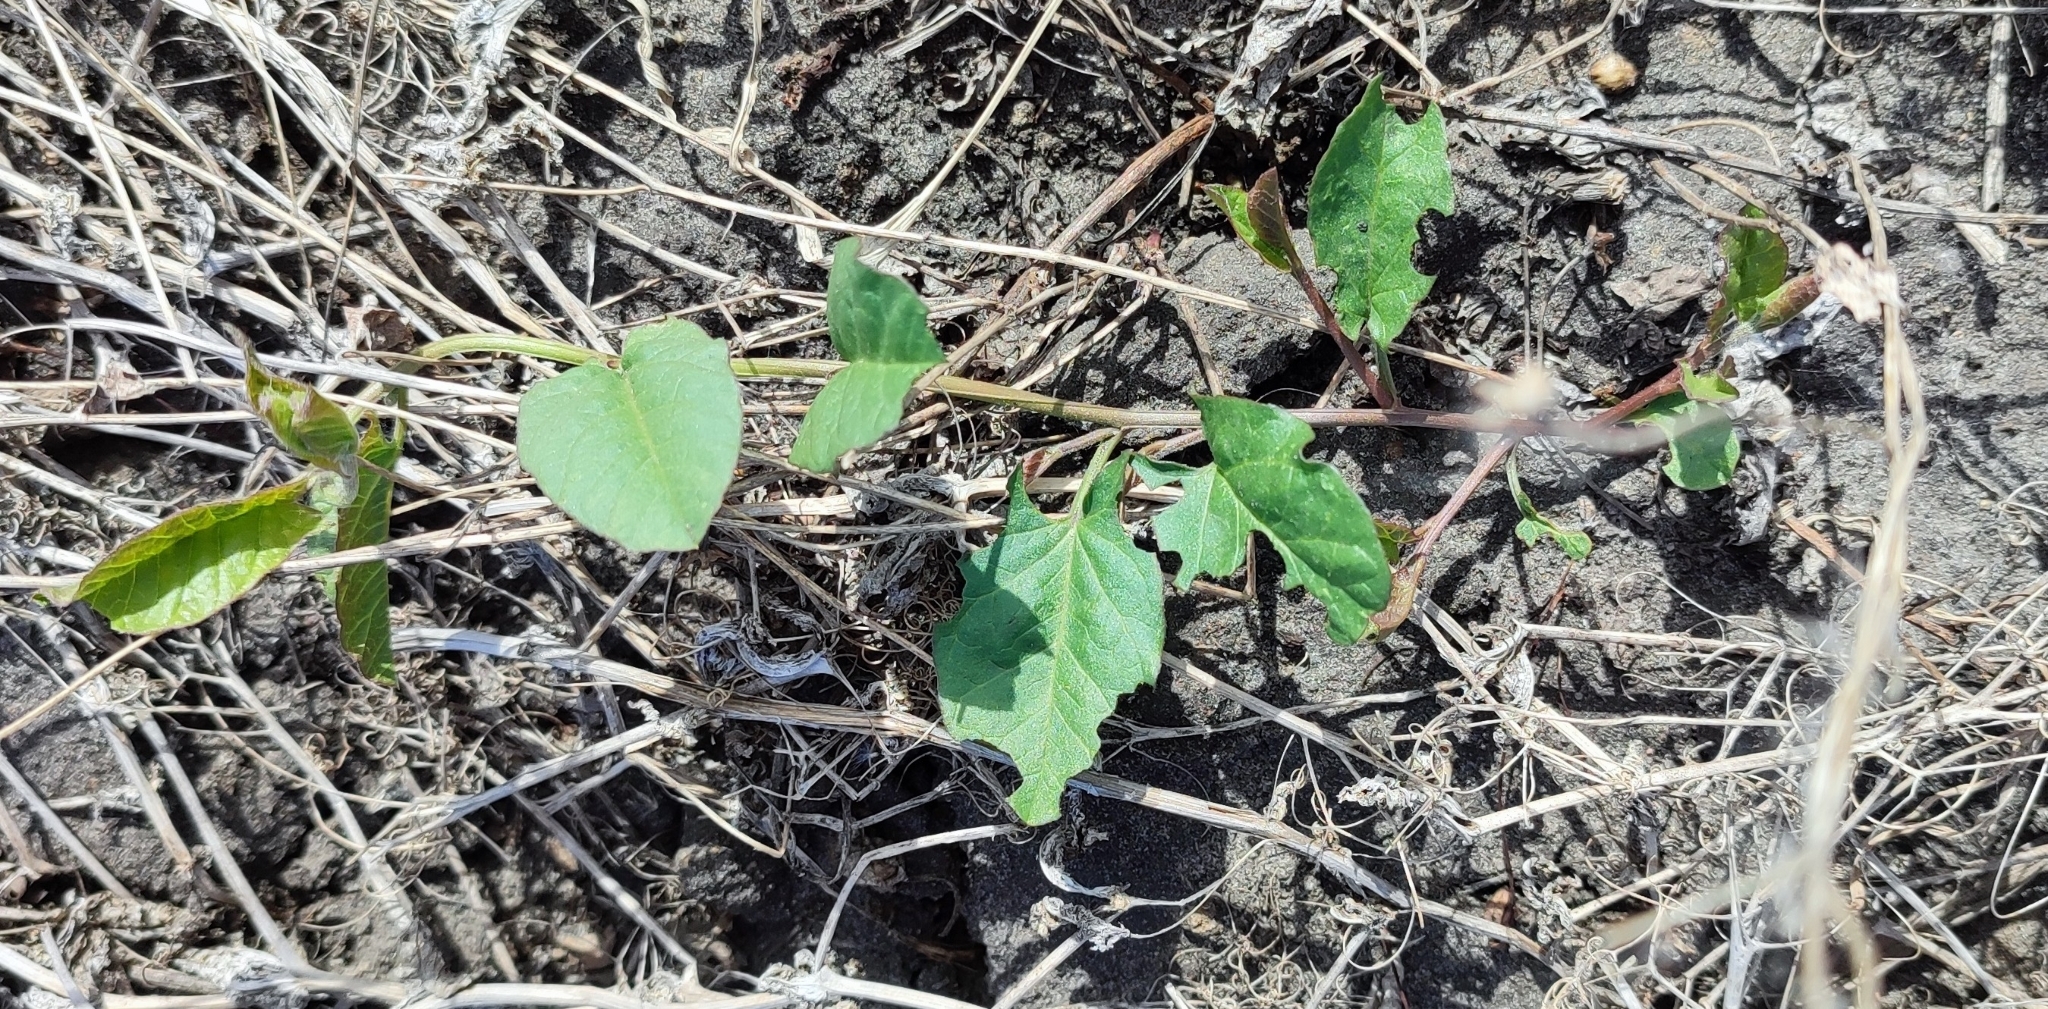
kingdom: Plantae
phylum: Tracheophyta
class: Magnoliopsida
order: Solanales
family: Convolvulaceae
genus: Convolvulus
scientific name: Convolvulus arvensis
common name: Field bindweed
